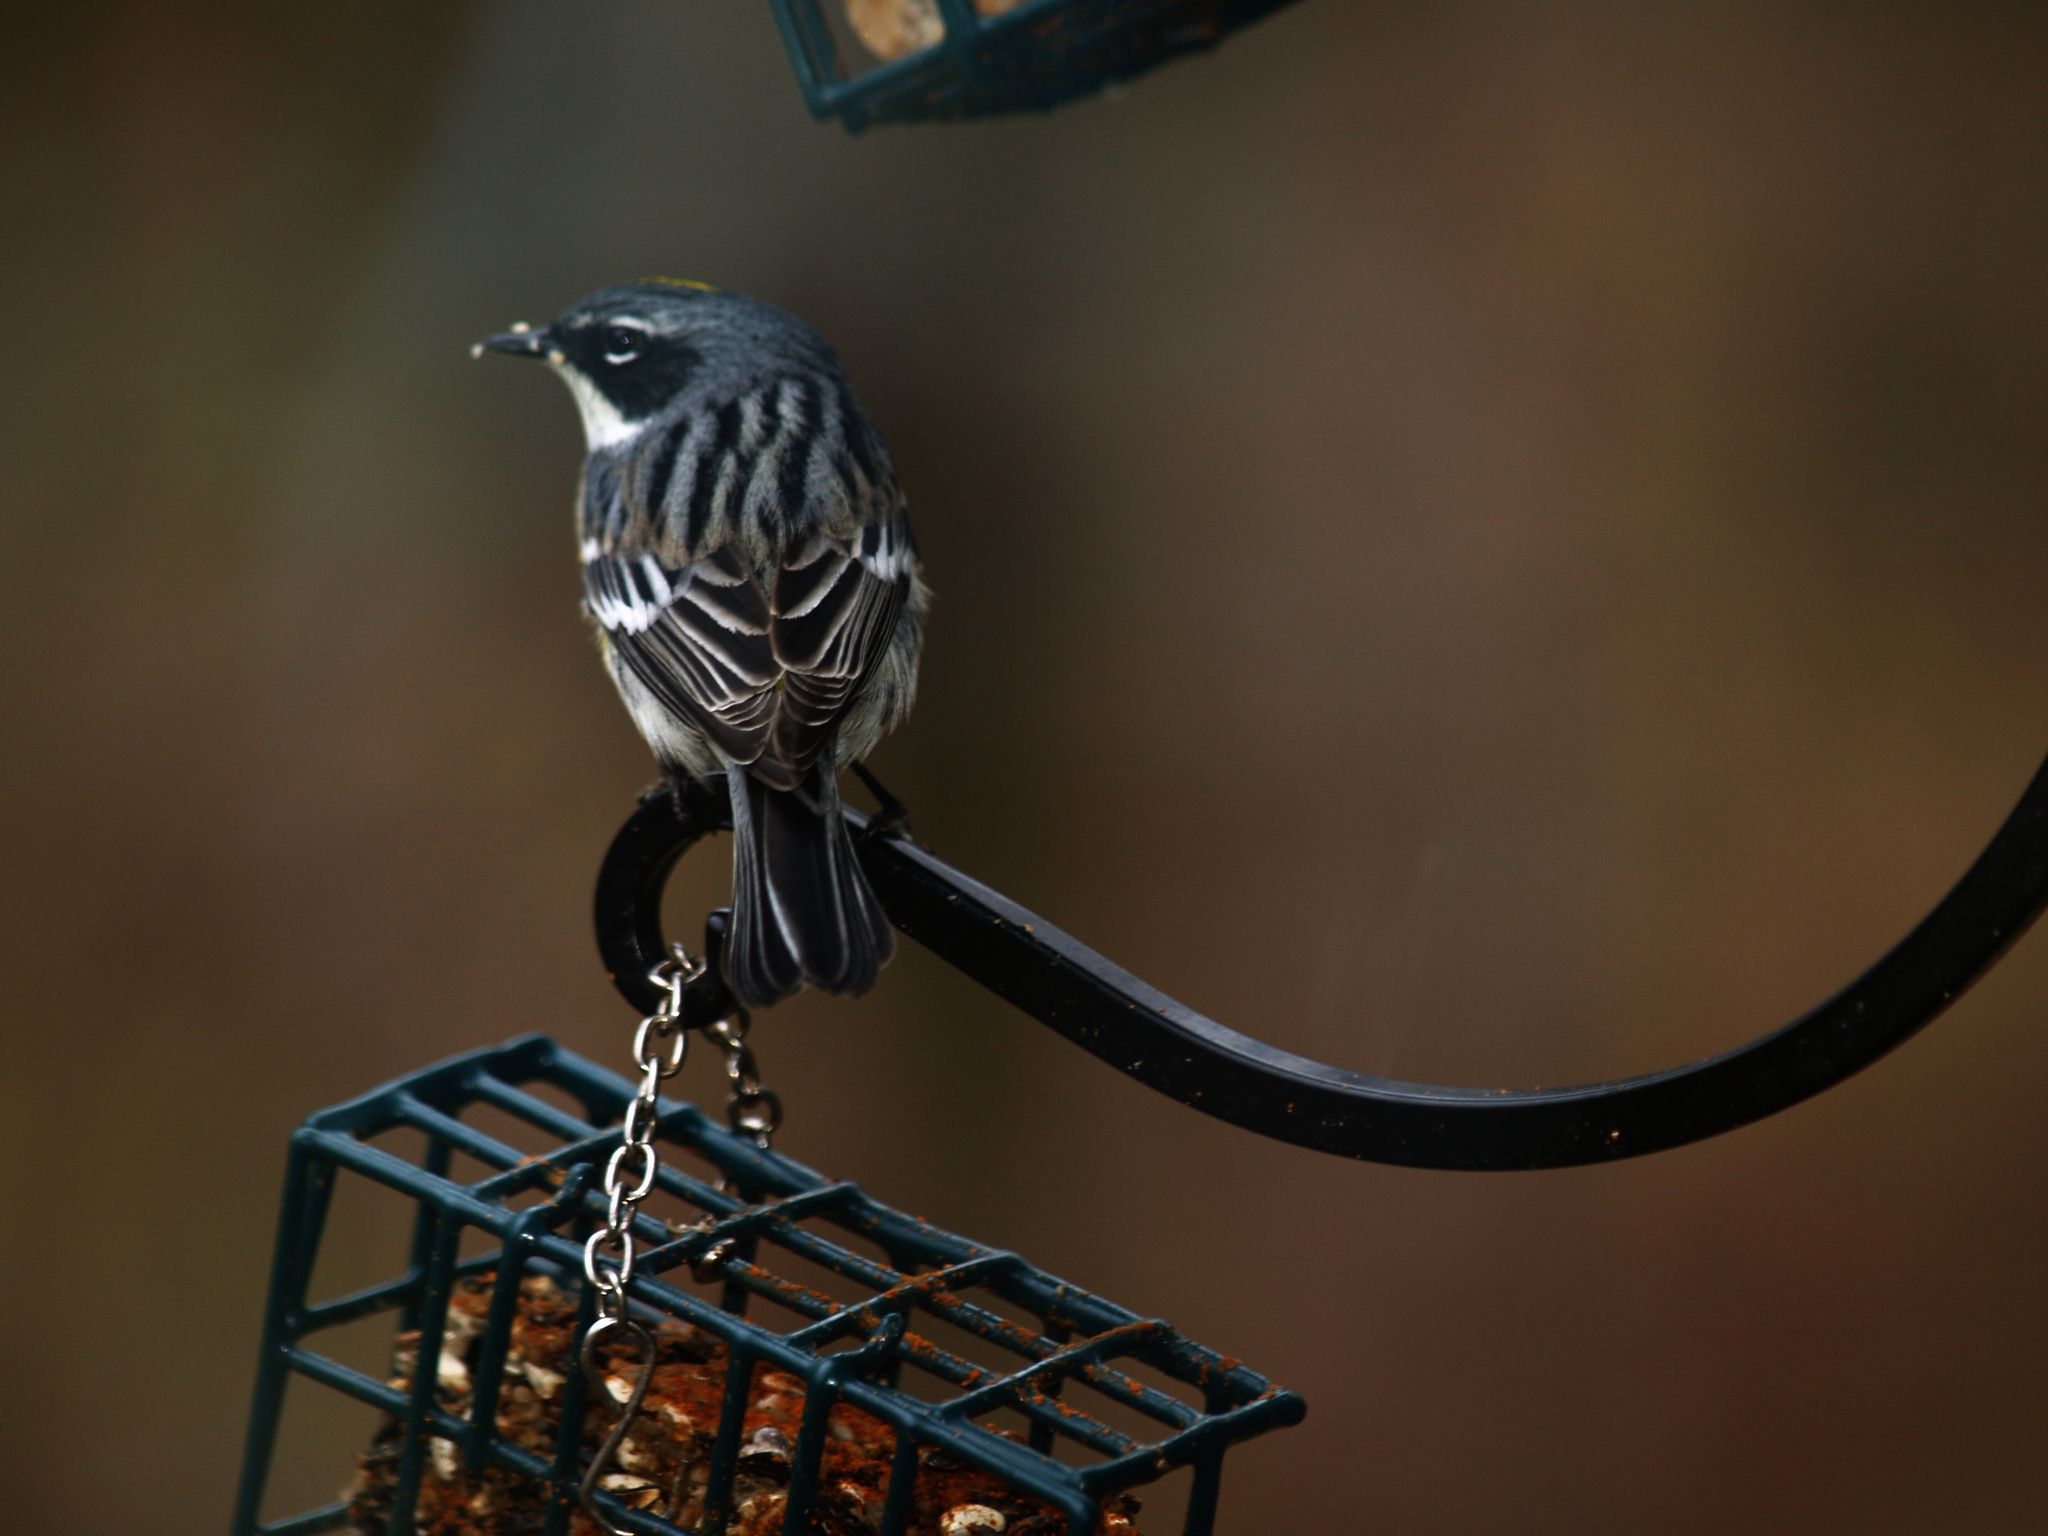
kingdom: Animalia
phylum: Chordata
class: Aves
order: Passeriformes
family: Parulidae
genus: Setophaga
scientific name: Setophaga coronata
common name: Myrtle warbler
